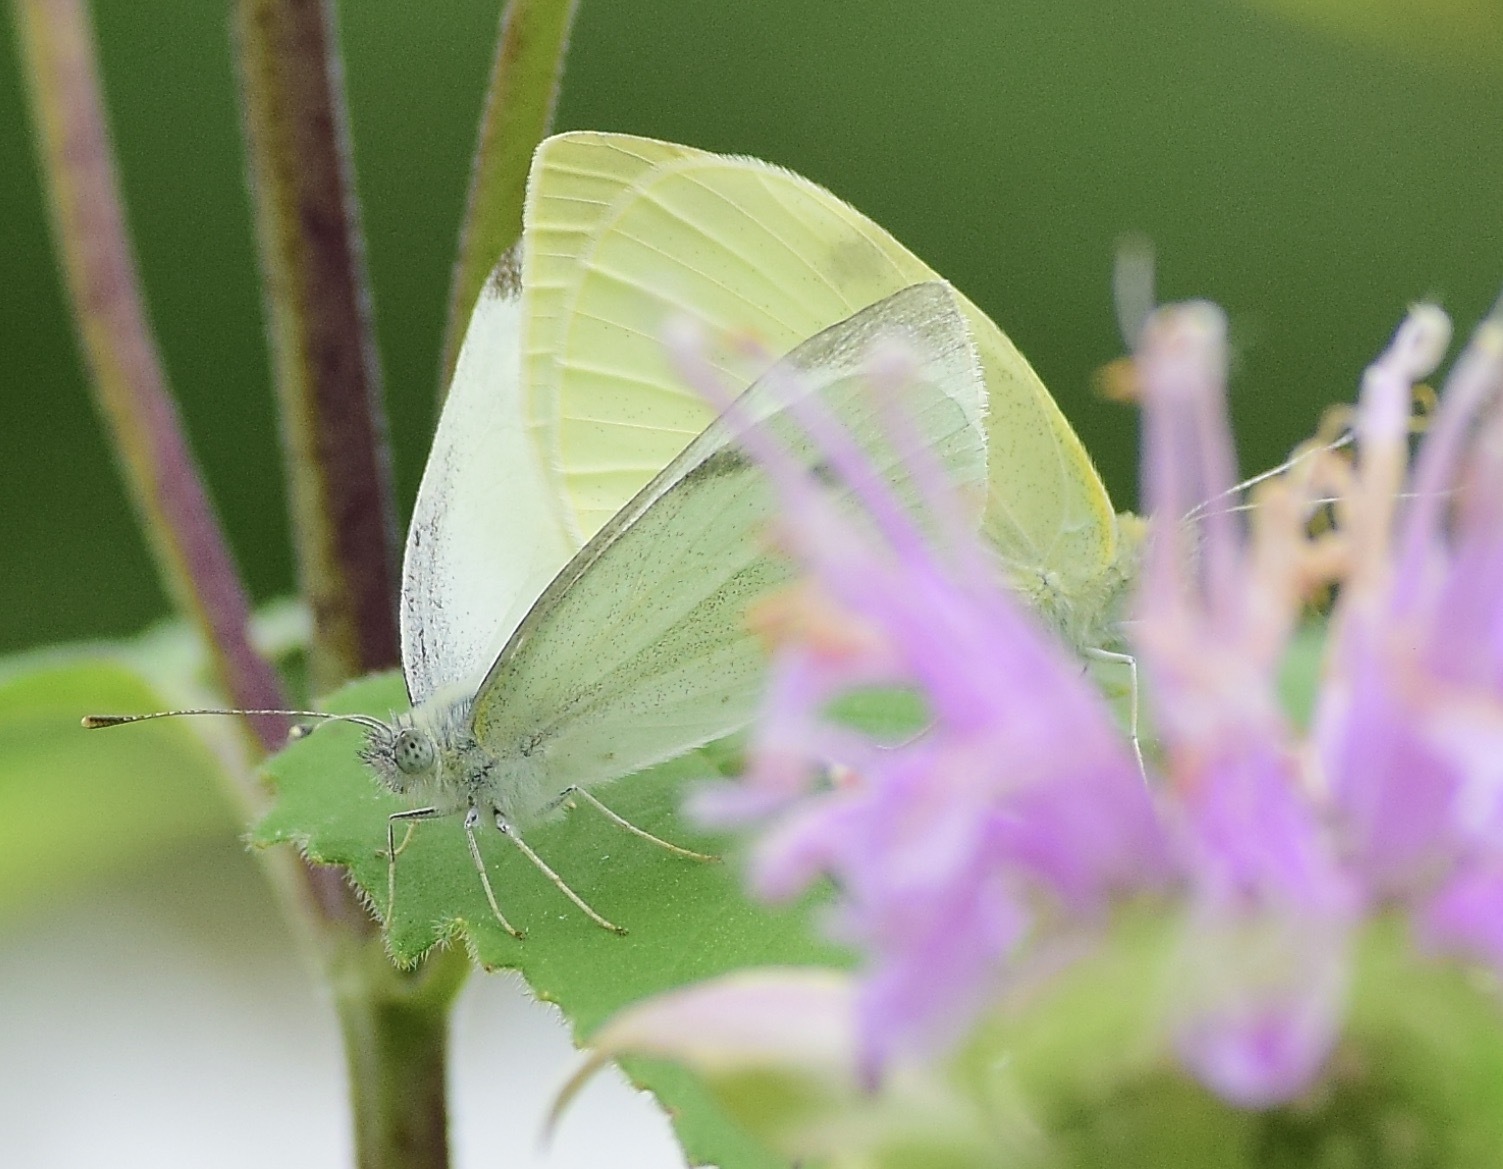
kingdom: Animalia
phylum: Arthropoda
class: Insecta
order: Lepidoptera
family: Pieridae
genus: Pieris
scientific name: Pieris rapae
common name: Small white
